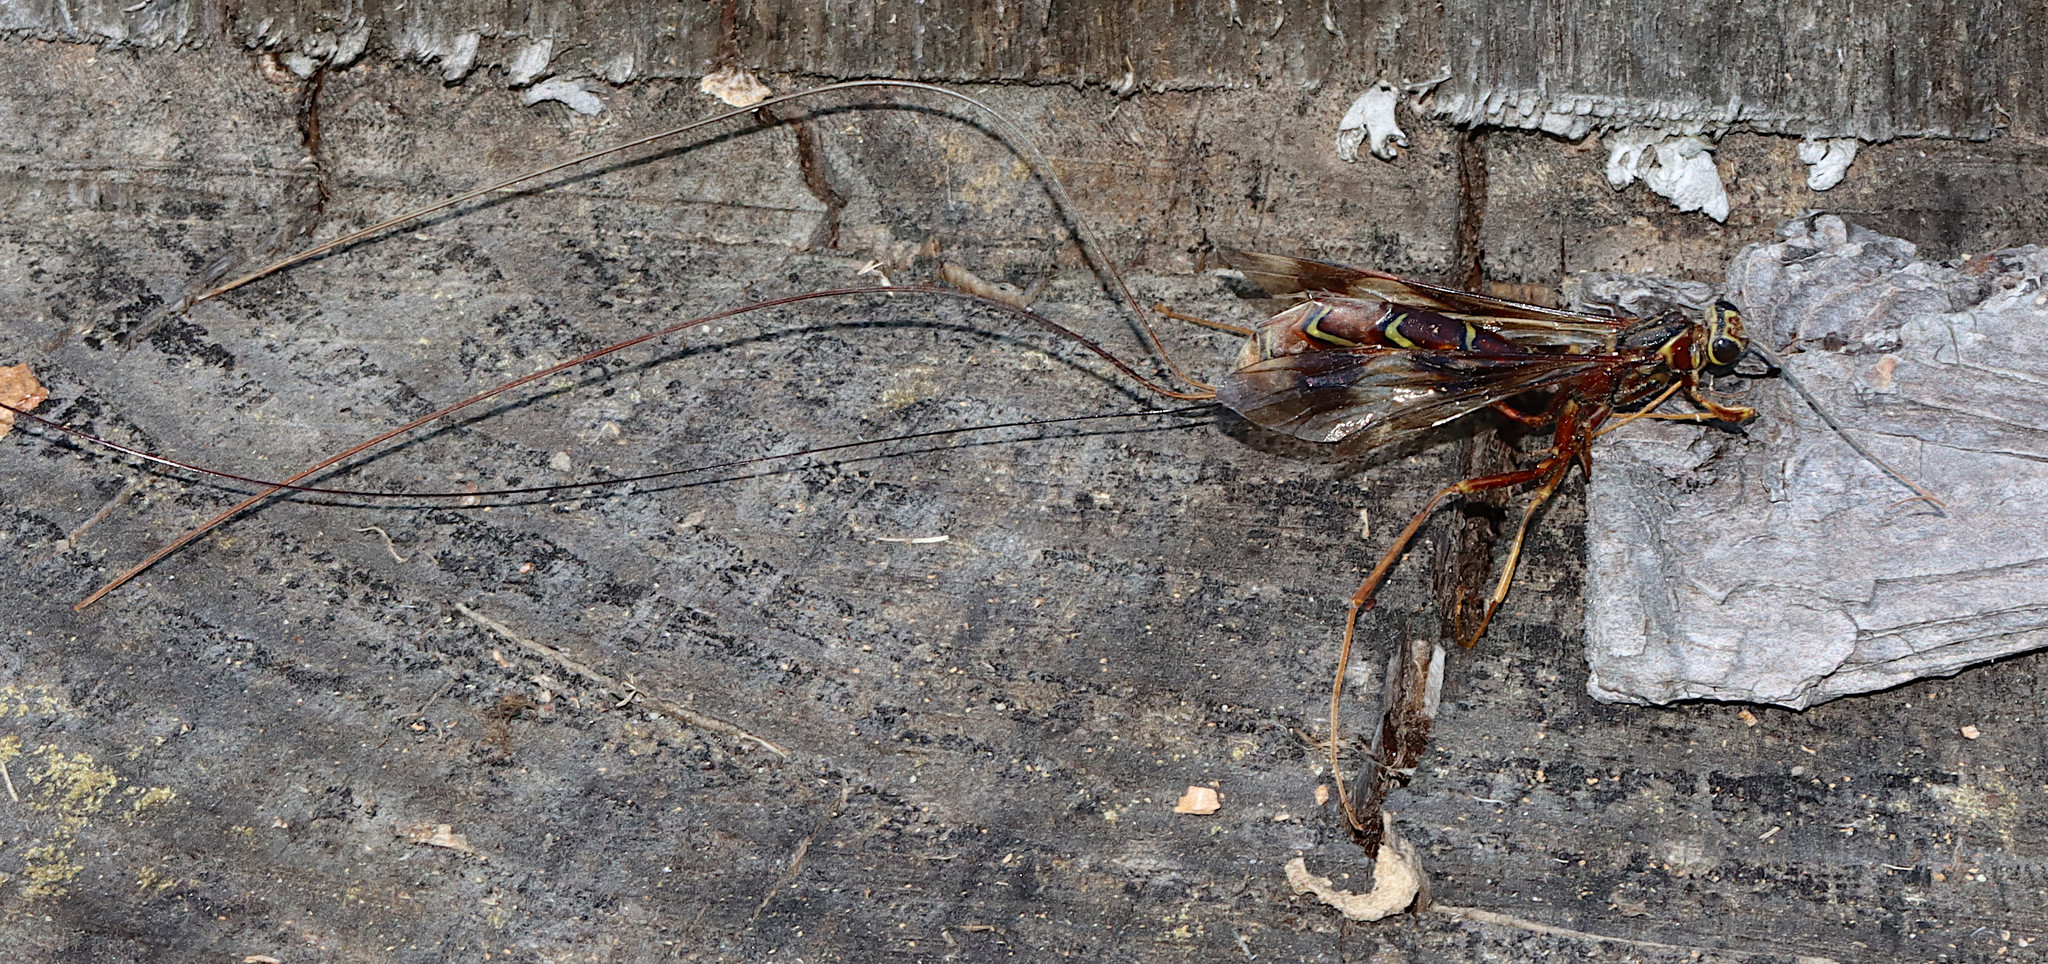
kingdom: Animalia
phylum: Arthropoda
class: Insecta
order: Hymenoptera
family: Ichneumonidae
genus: Megarhyssa
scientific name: Megarhyssa macrura
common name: Long-tailed giant ichneumonid wasp
